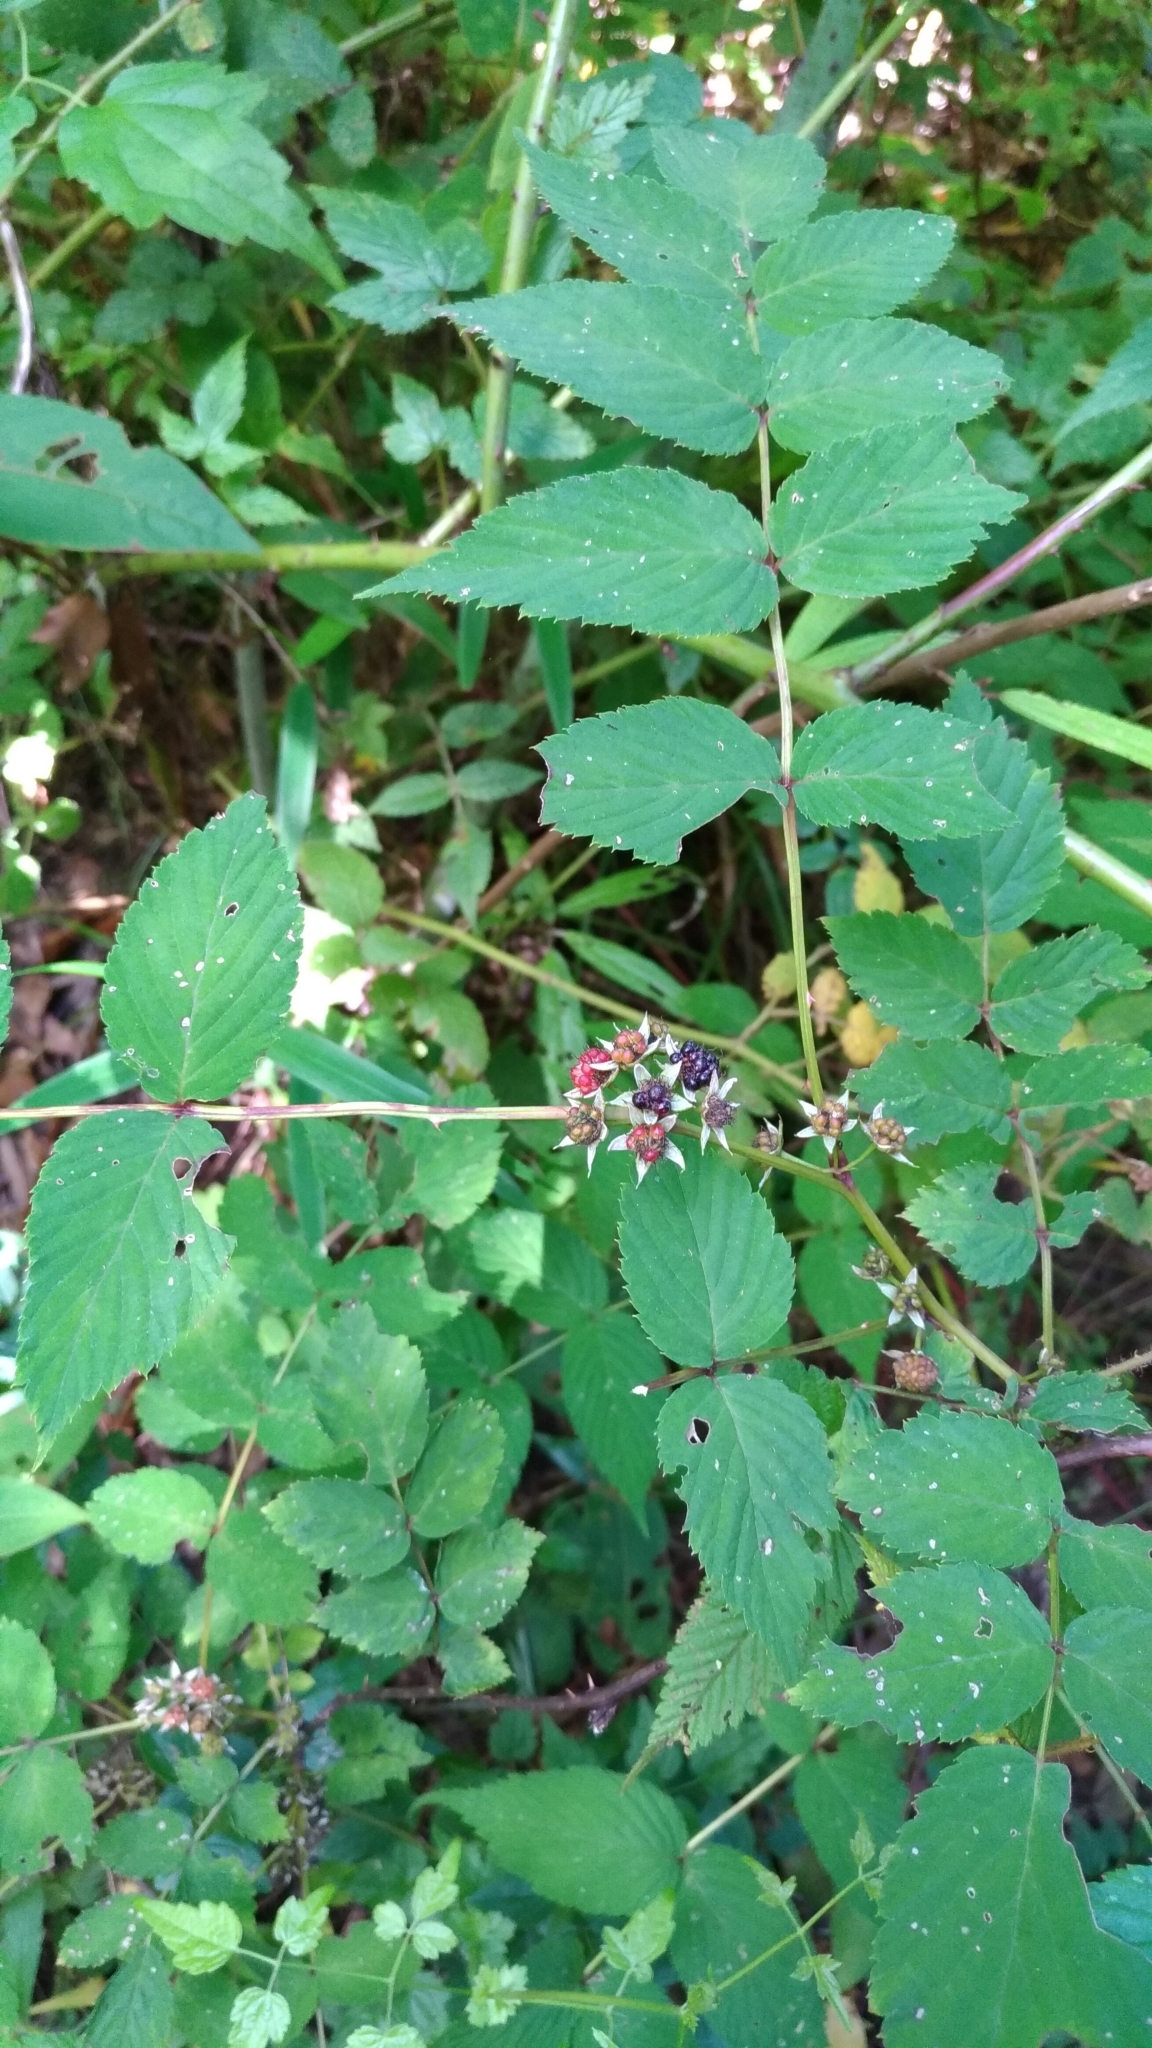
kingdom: Plantae
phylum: Tracheophyta
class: Magnoliopsida
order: Rosales
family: Rosaceae
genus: Rubus
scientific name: Rubus inopertus
